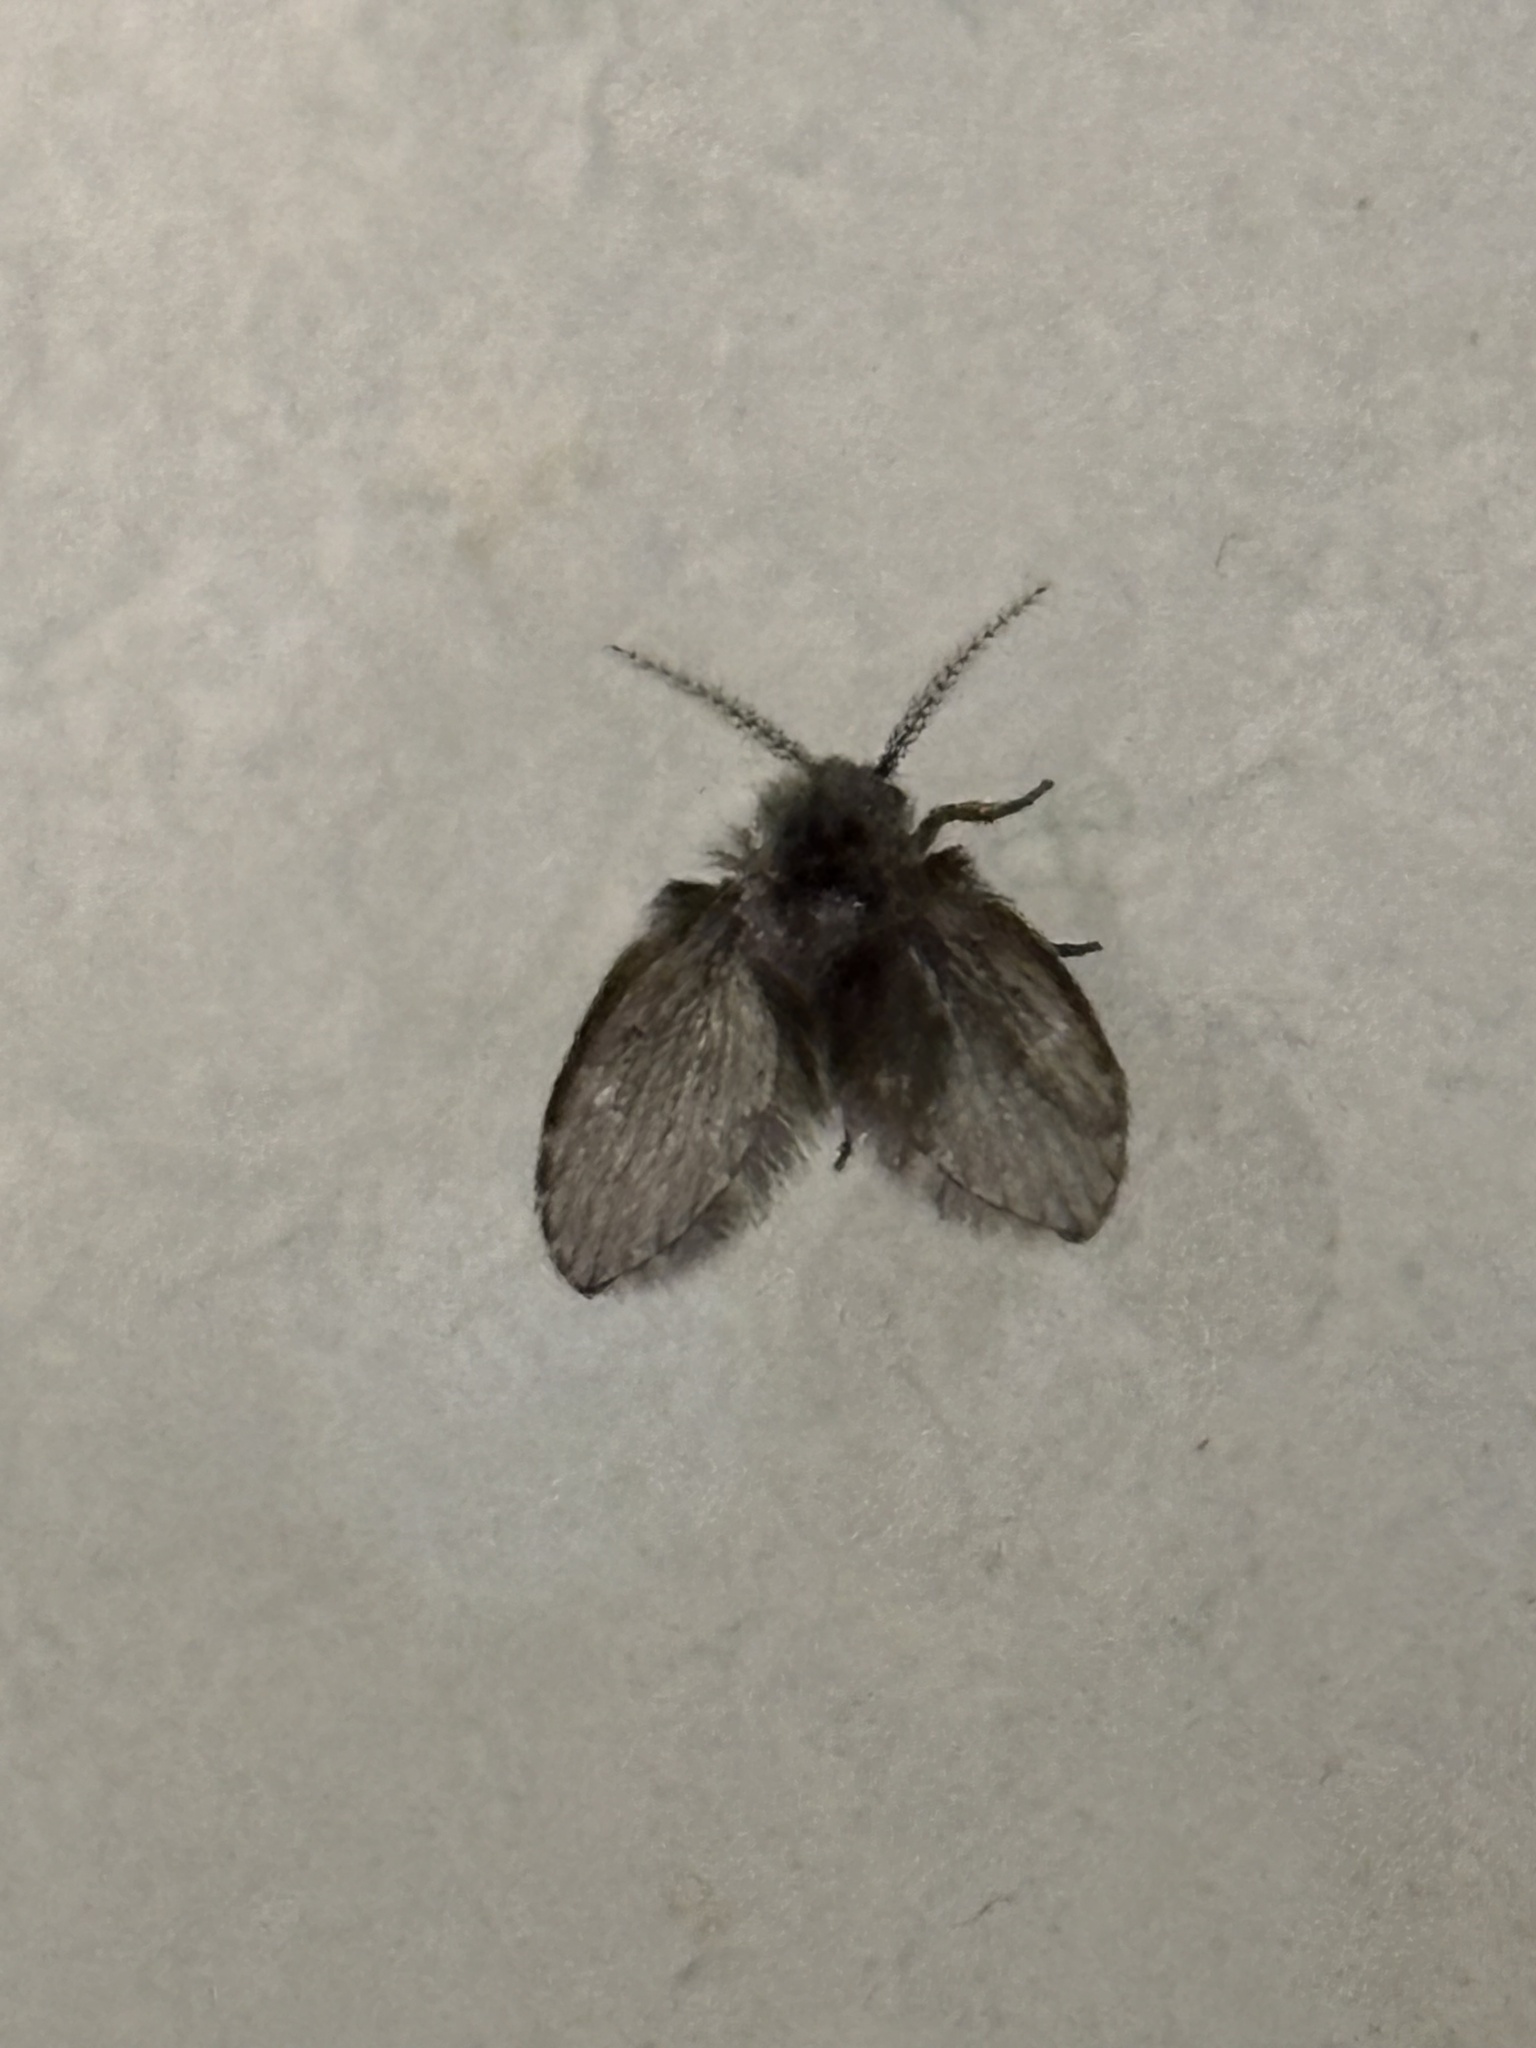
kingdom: Animalia
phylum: Arthropoda
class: Insecta
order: Diptera
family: Psychodidae
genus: Clogmia
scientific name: Clogmia albipunctatus
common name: White-spotted moth fly
